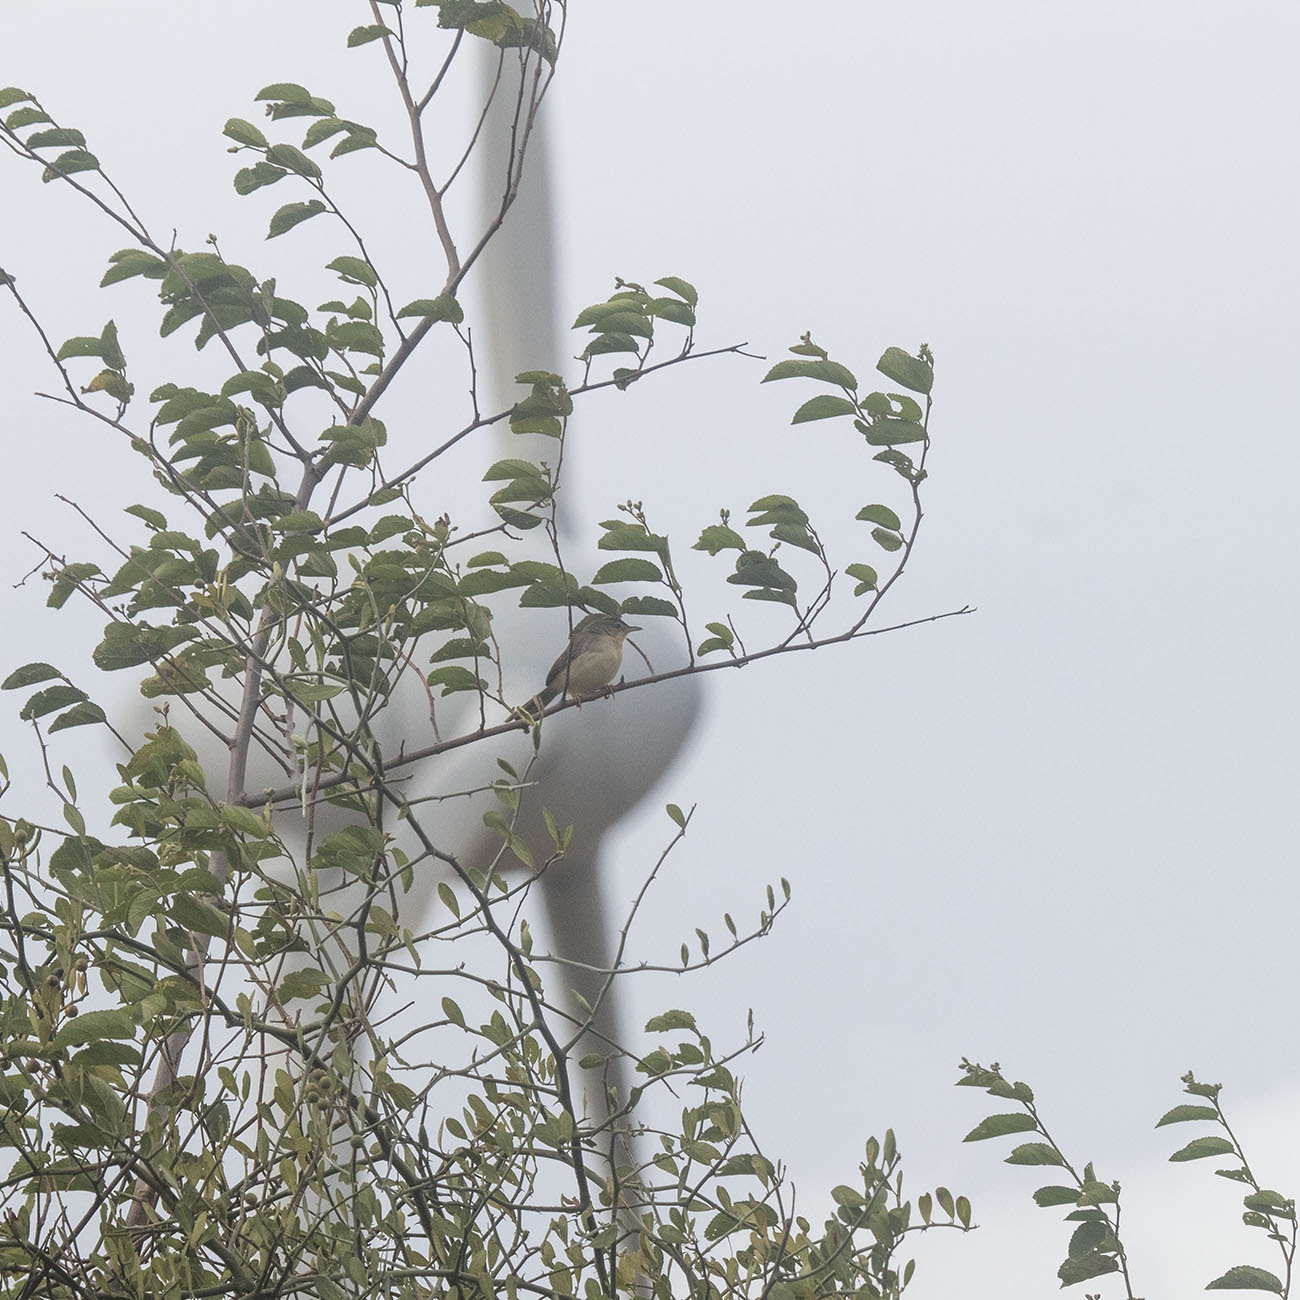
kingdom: Animalia
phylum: Chordata
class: Aves
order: Passeriformes
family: Cisticolidae
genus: Prinia
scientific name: Prinia sylvatica
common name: Jungle prinia
